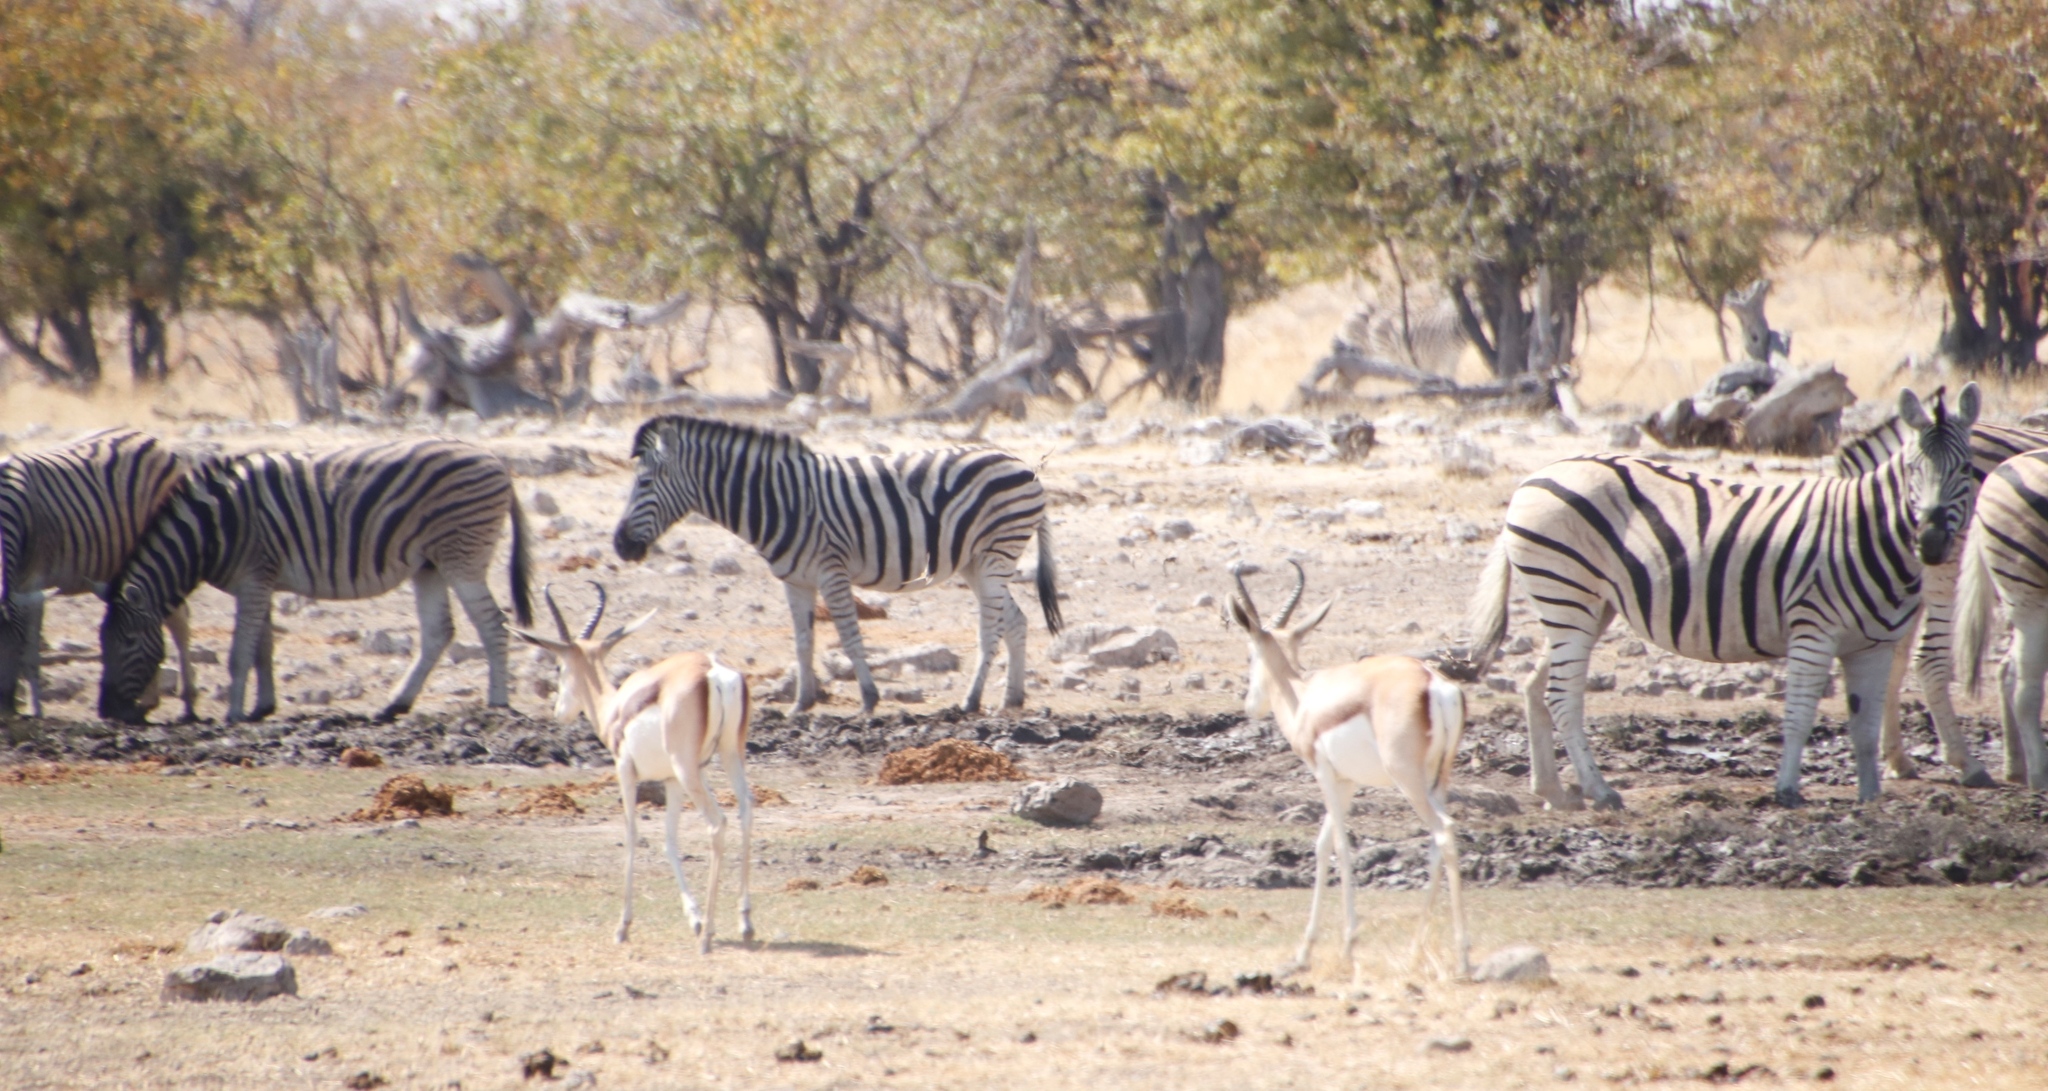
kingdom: Animalia
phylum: Chordata
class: Mammalia
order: Artiodactyla
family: Bovidae
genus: Antidorcas
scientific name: Antidorcas marsupialis
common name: Springbok
